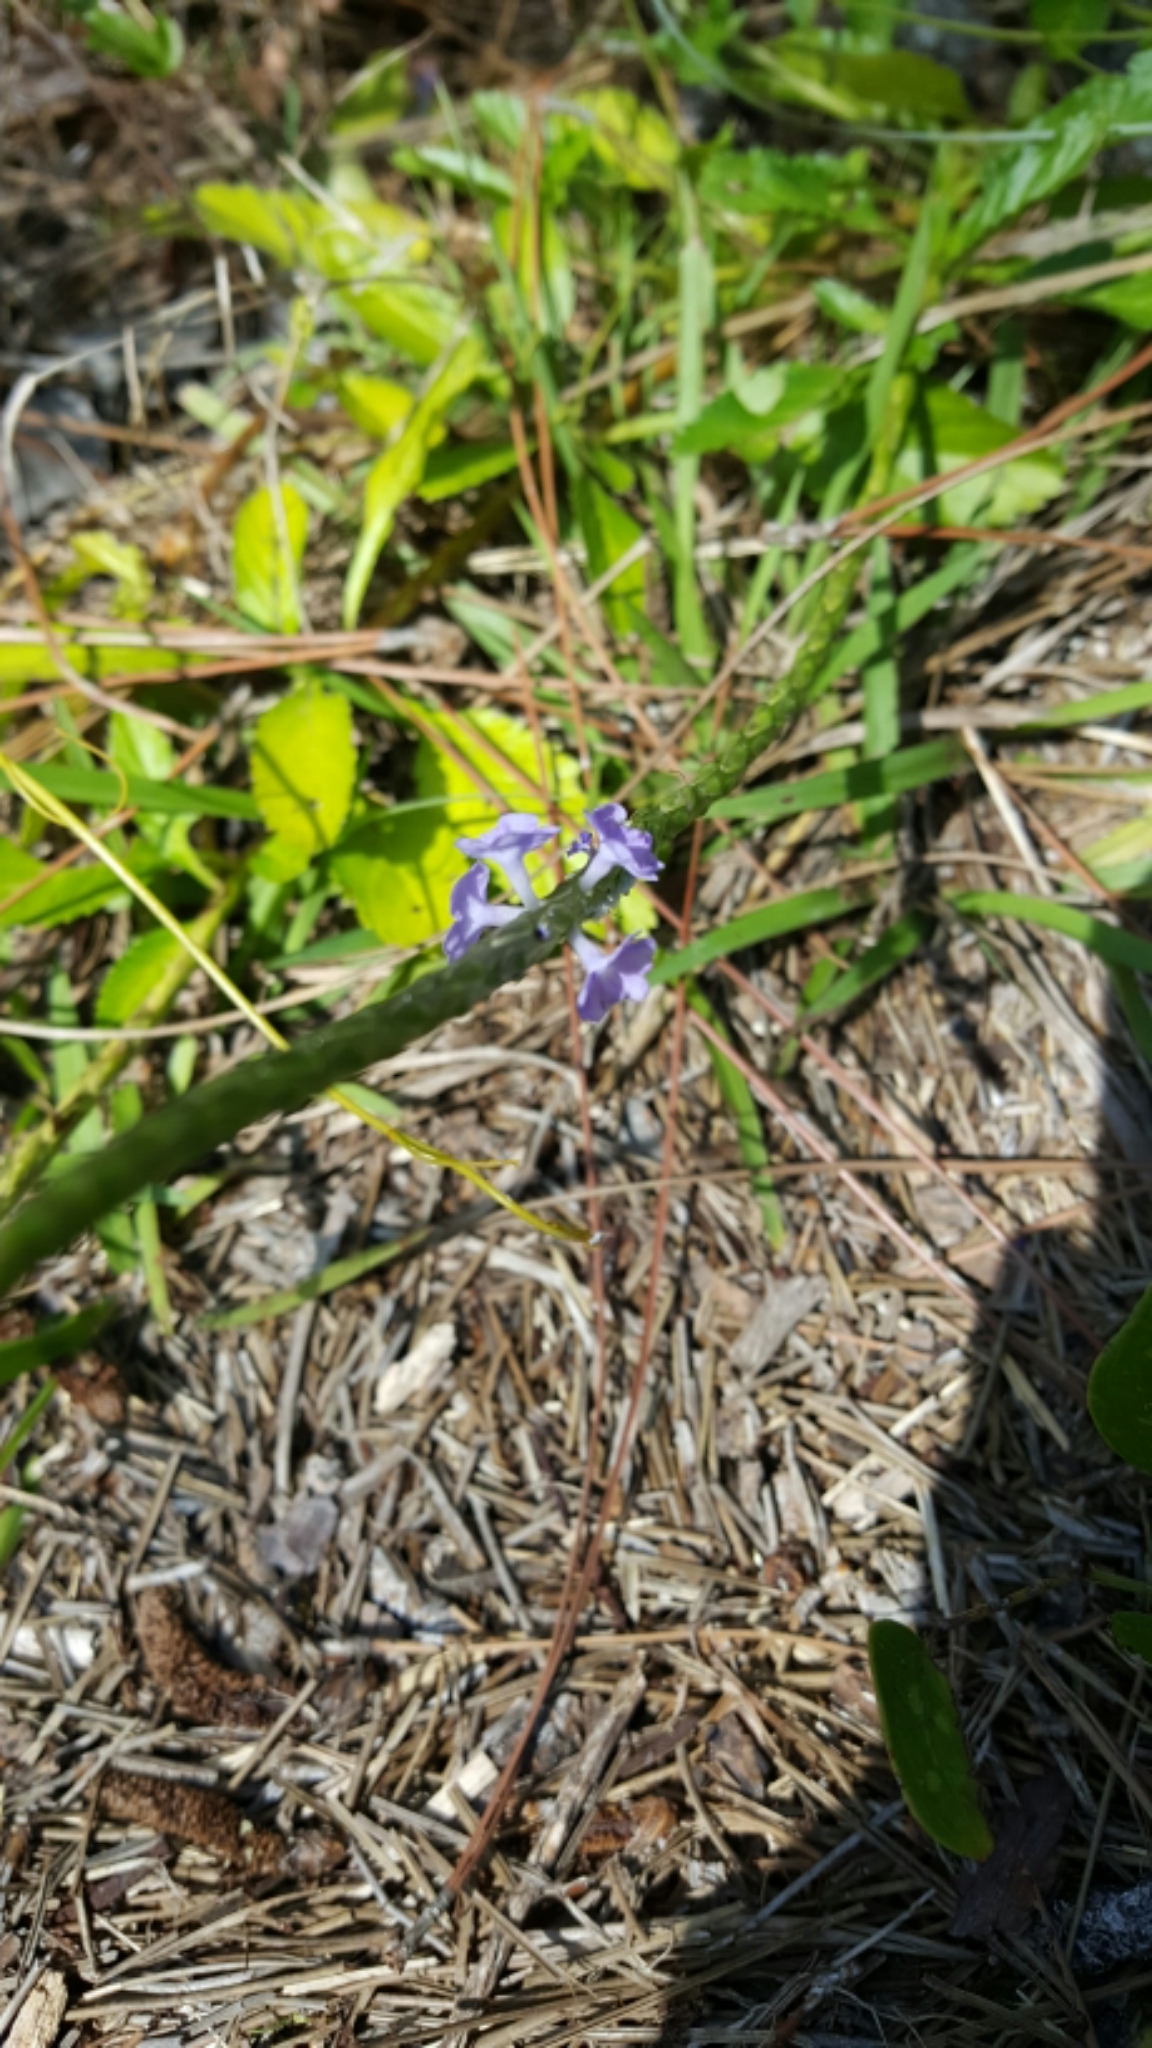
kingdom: Plantae
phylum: Tracheophyta
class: Magnoliopsida
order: Lamiales
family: Verbenaceae
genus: Stachytarpheta
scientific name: Stachytarpheta jamaicensis
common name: Light-blue snakeweed
